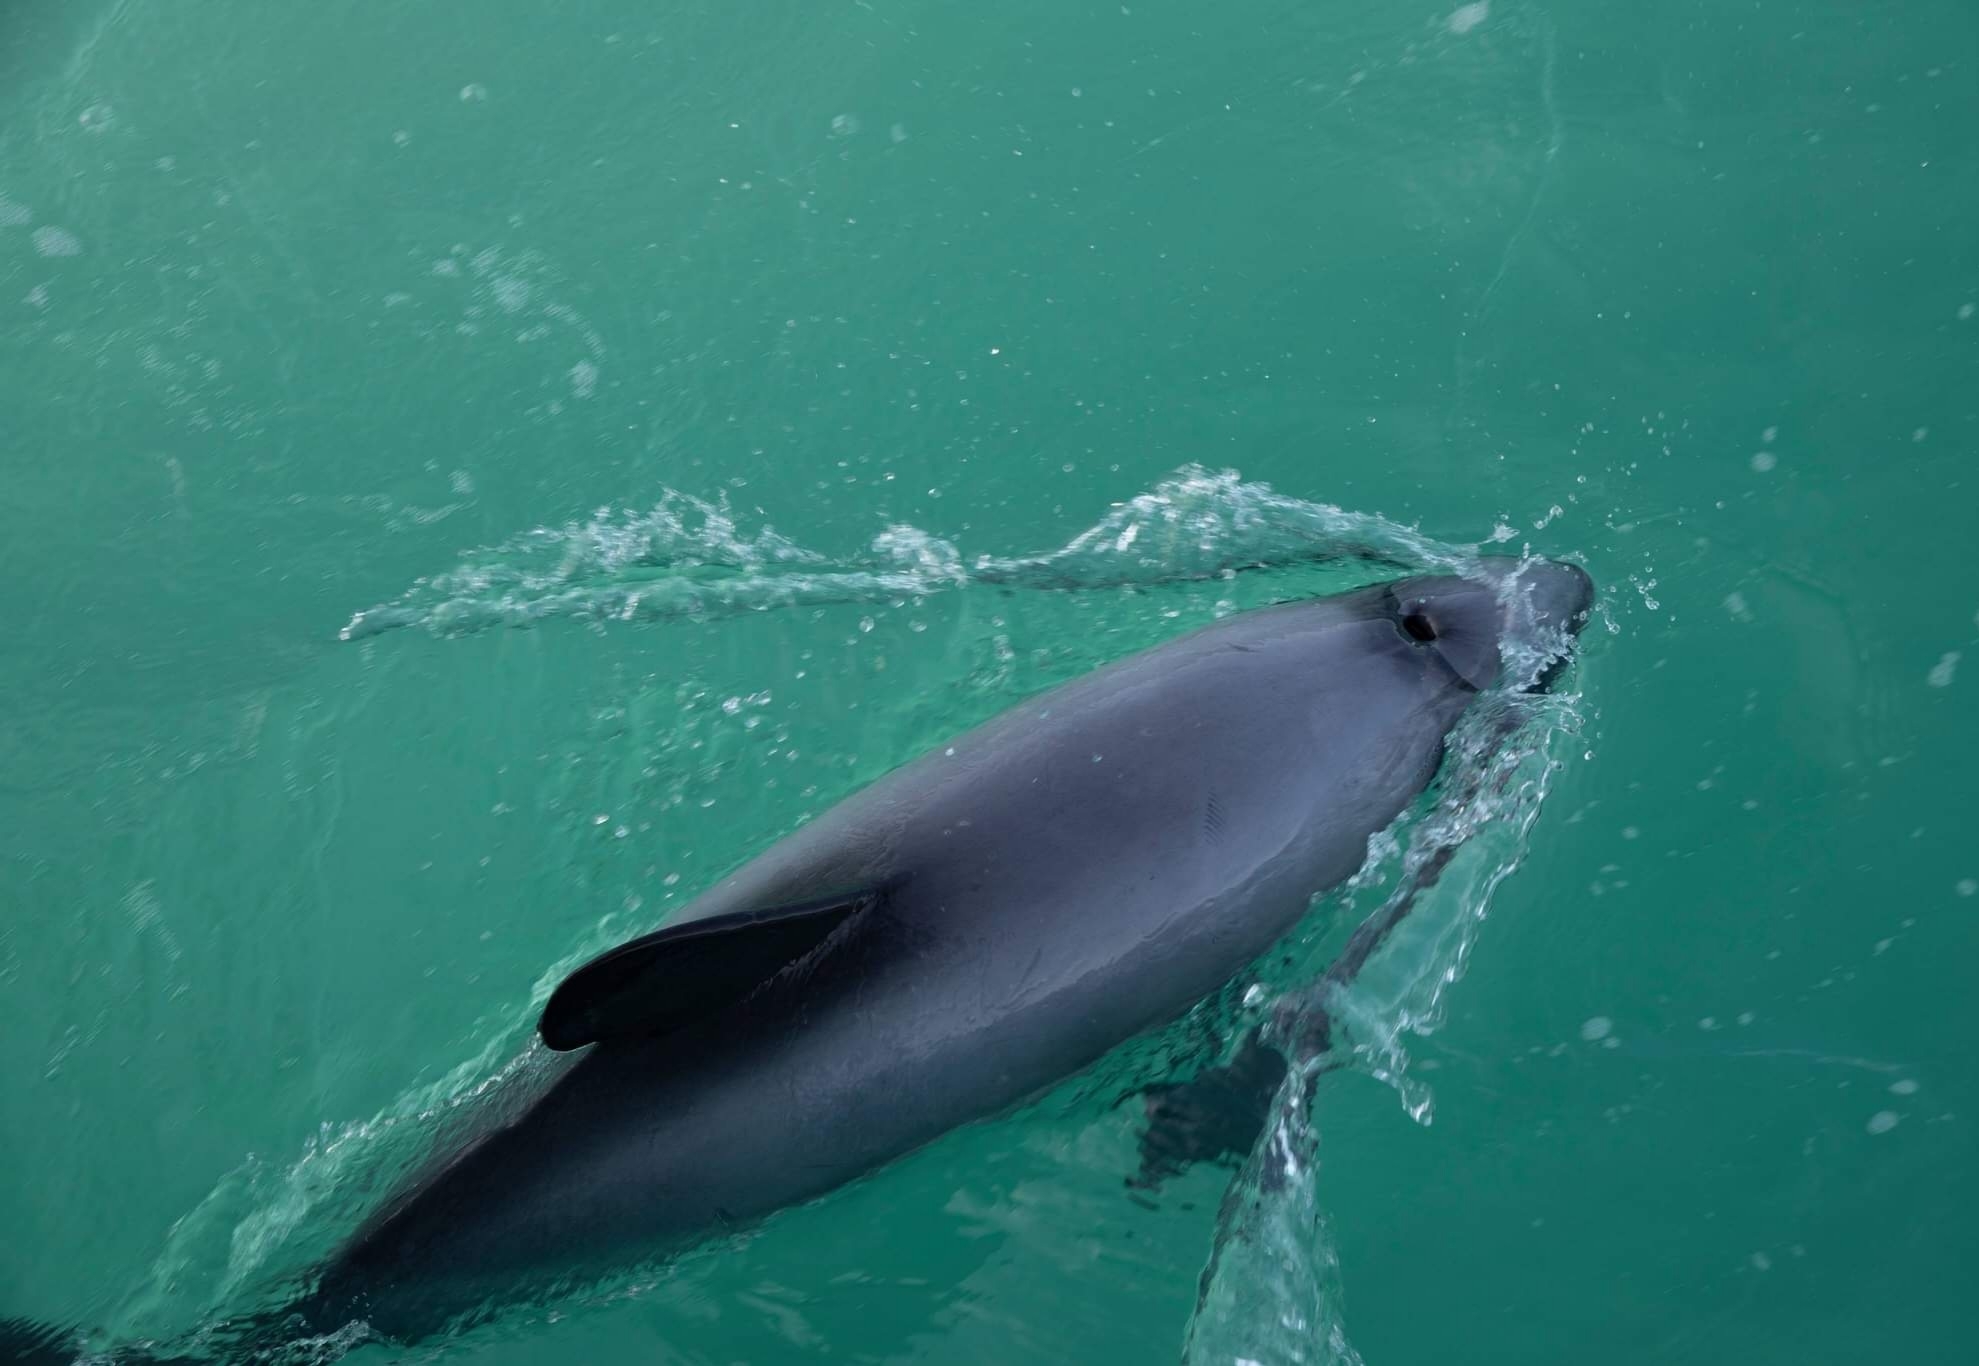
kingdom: Animalia
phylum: Chordata
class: Mammalia
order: Cetacea
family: Delphinidae
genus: Cephalorhynchus
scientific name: Cephalorhynchus hectori
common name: Hector's dolphin
